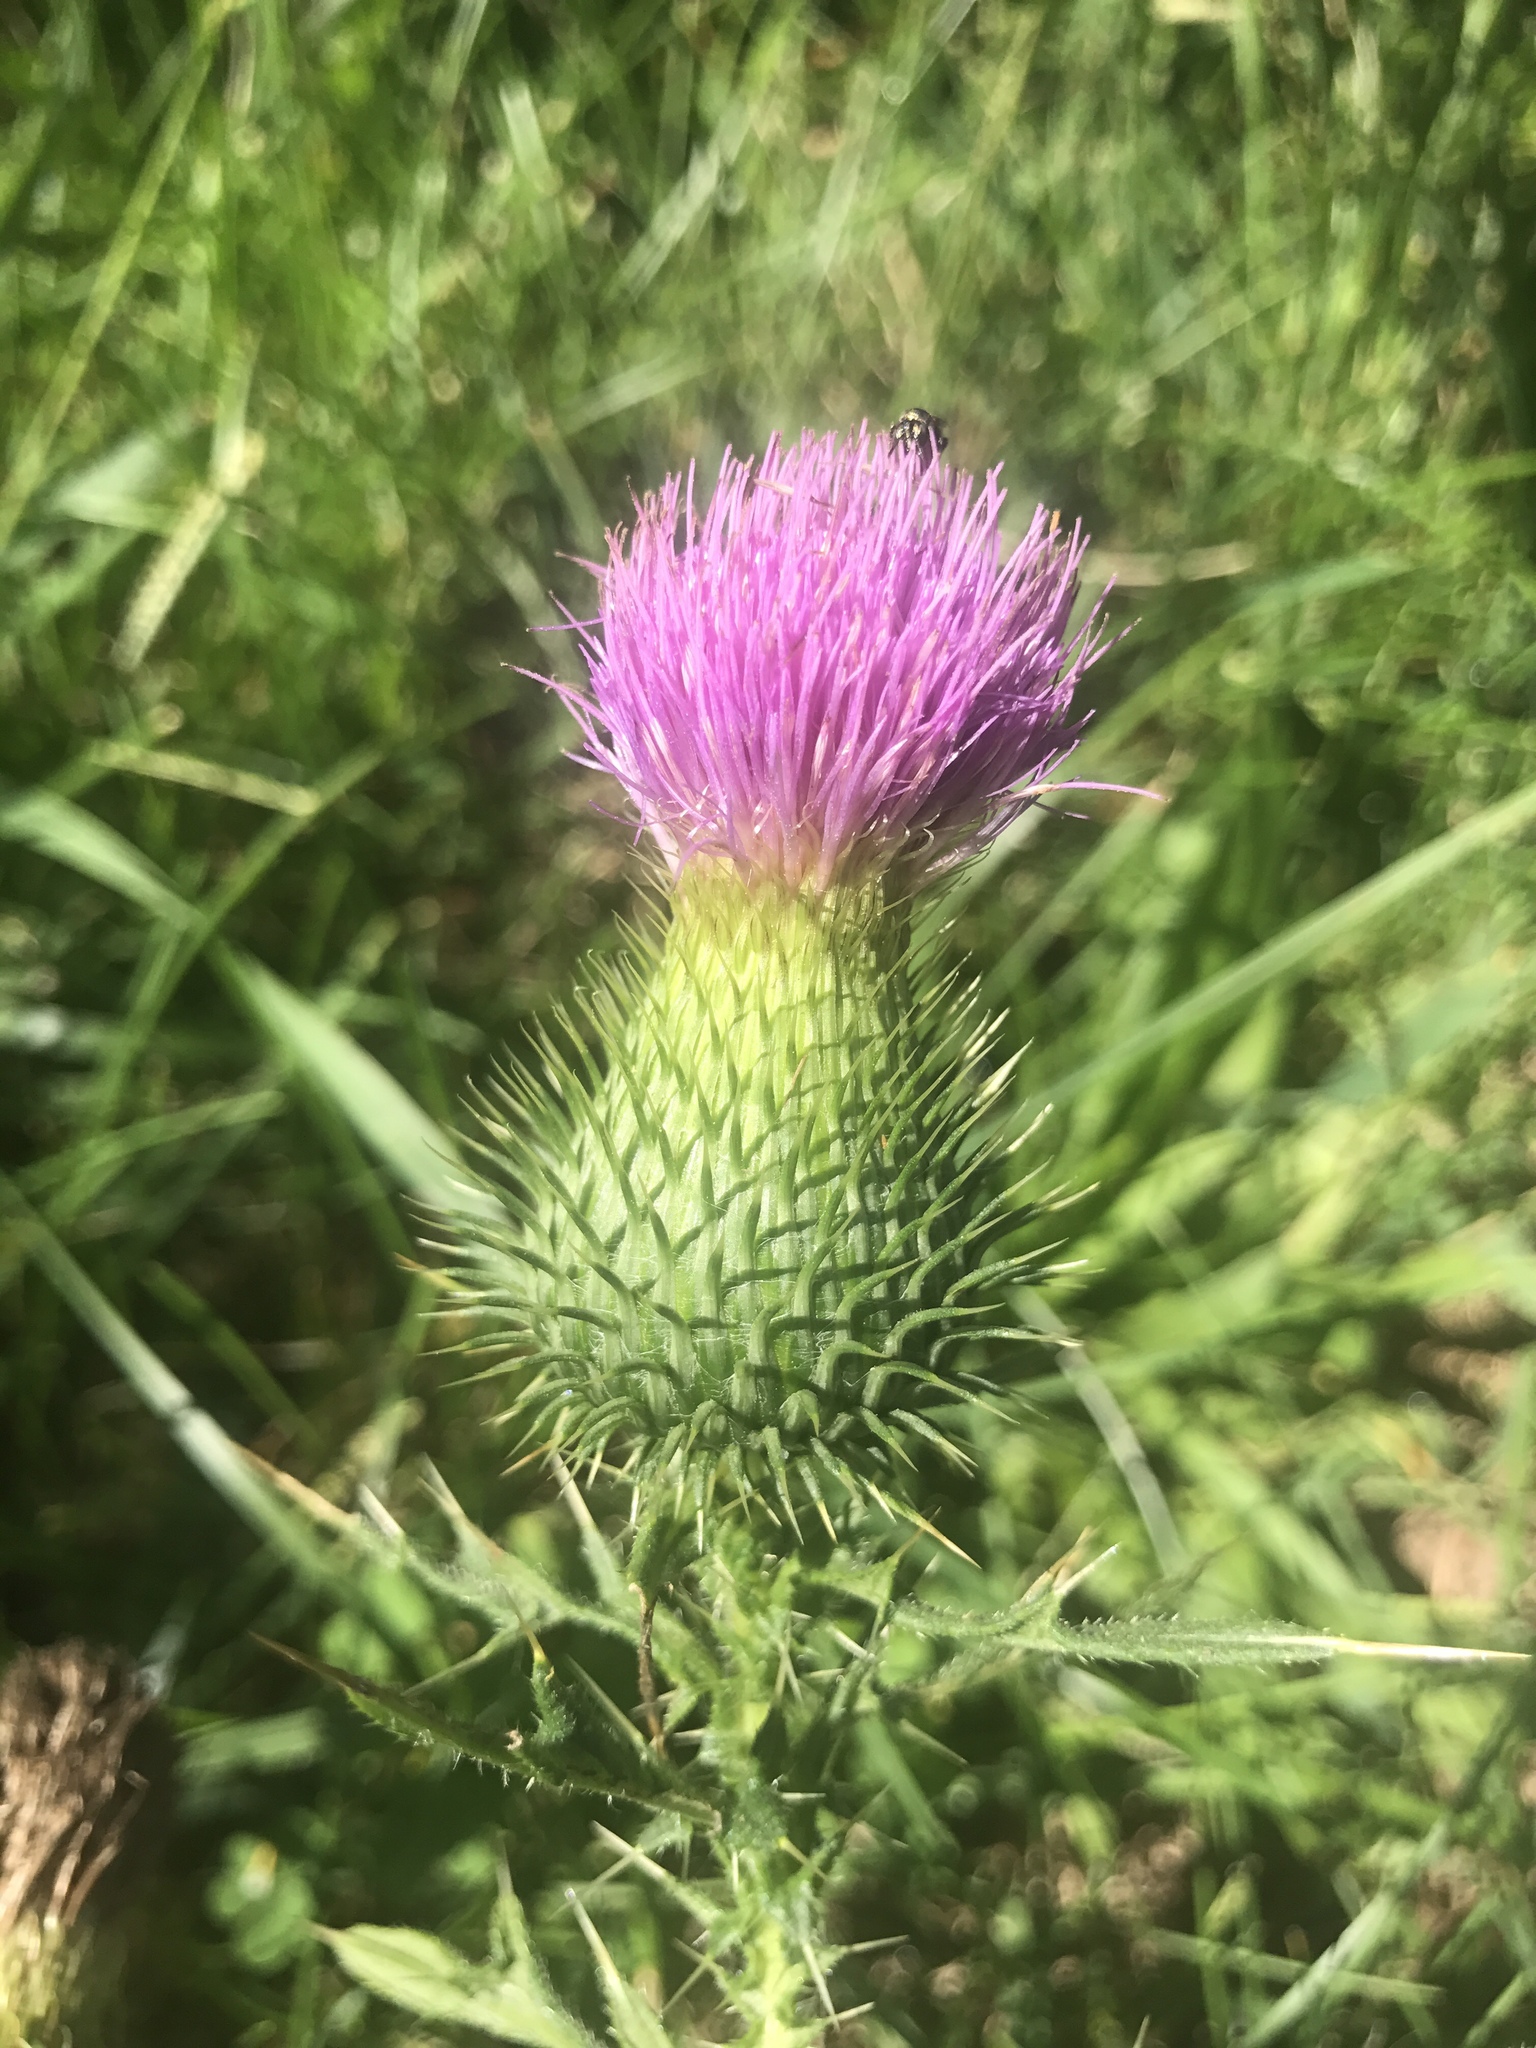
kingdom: Plantae
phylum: Tracheophyta
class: Magnoliopsida
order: Asterales
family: Asteraceae
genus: Cirsium
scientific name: Cirsium vulgare
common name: Bull thistle
